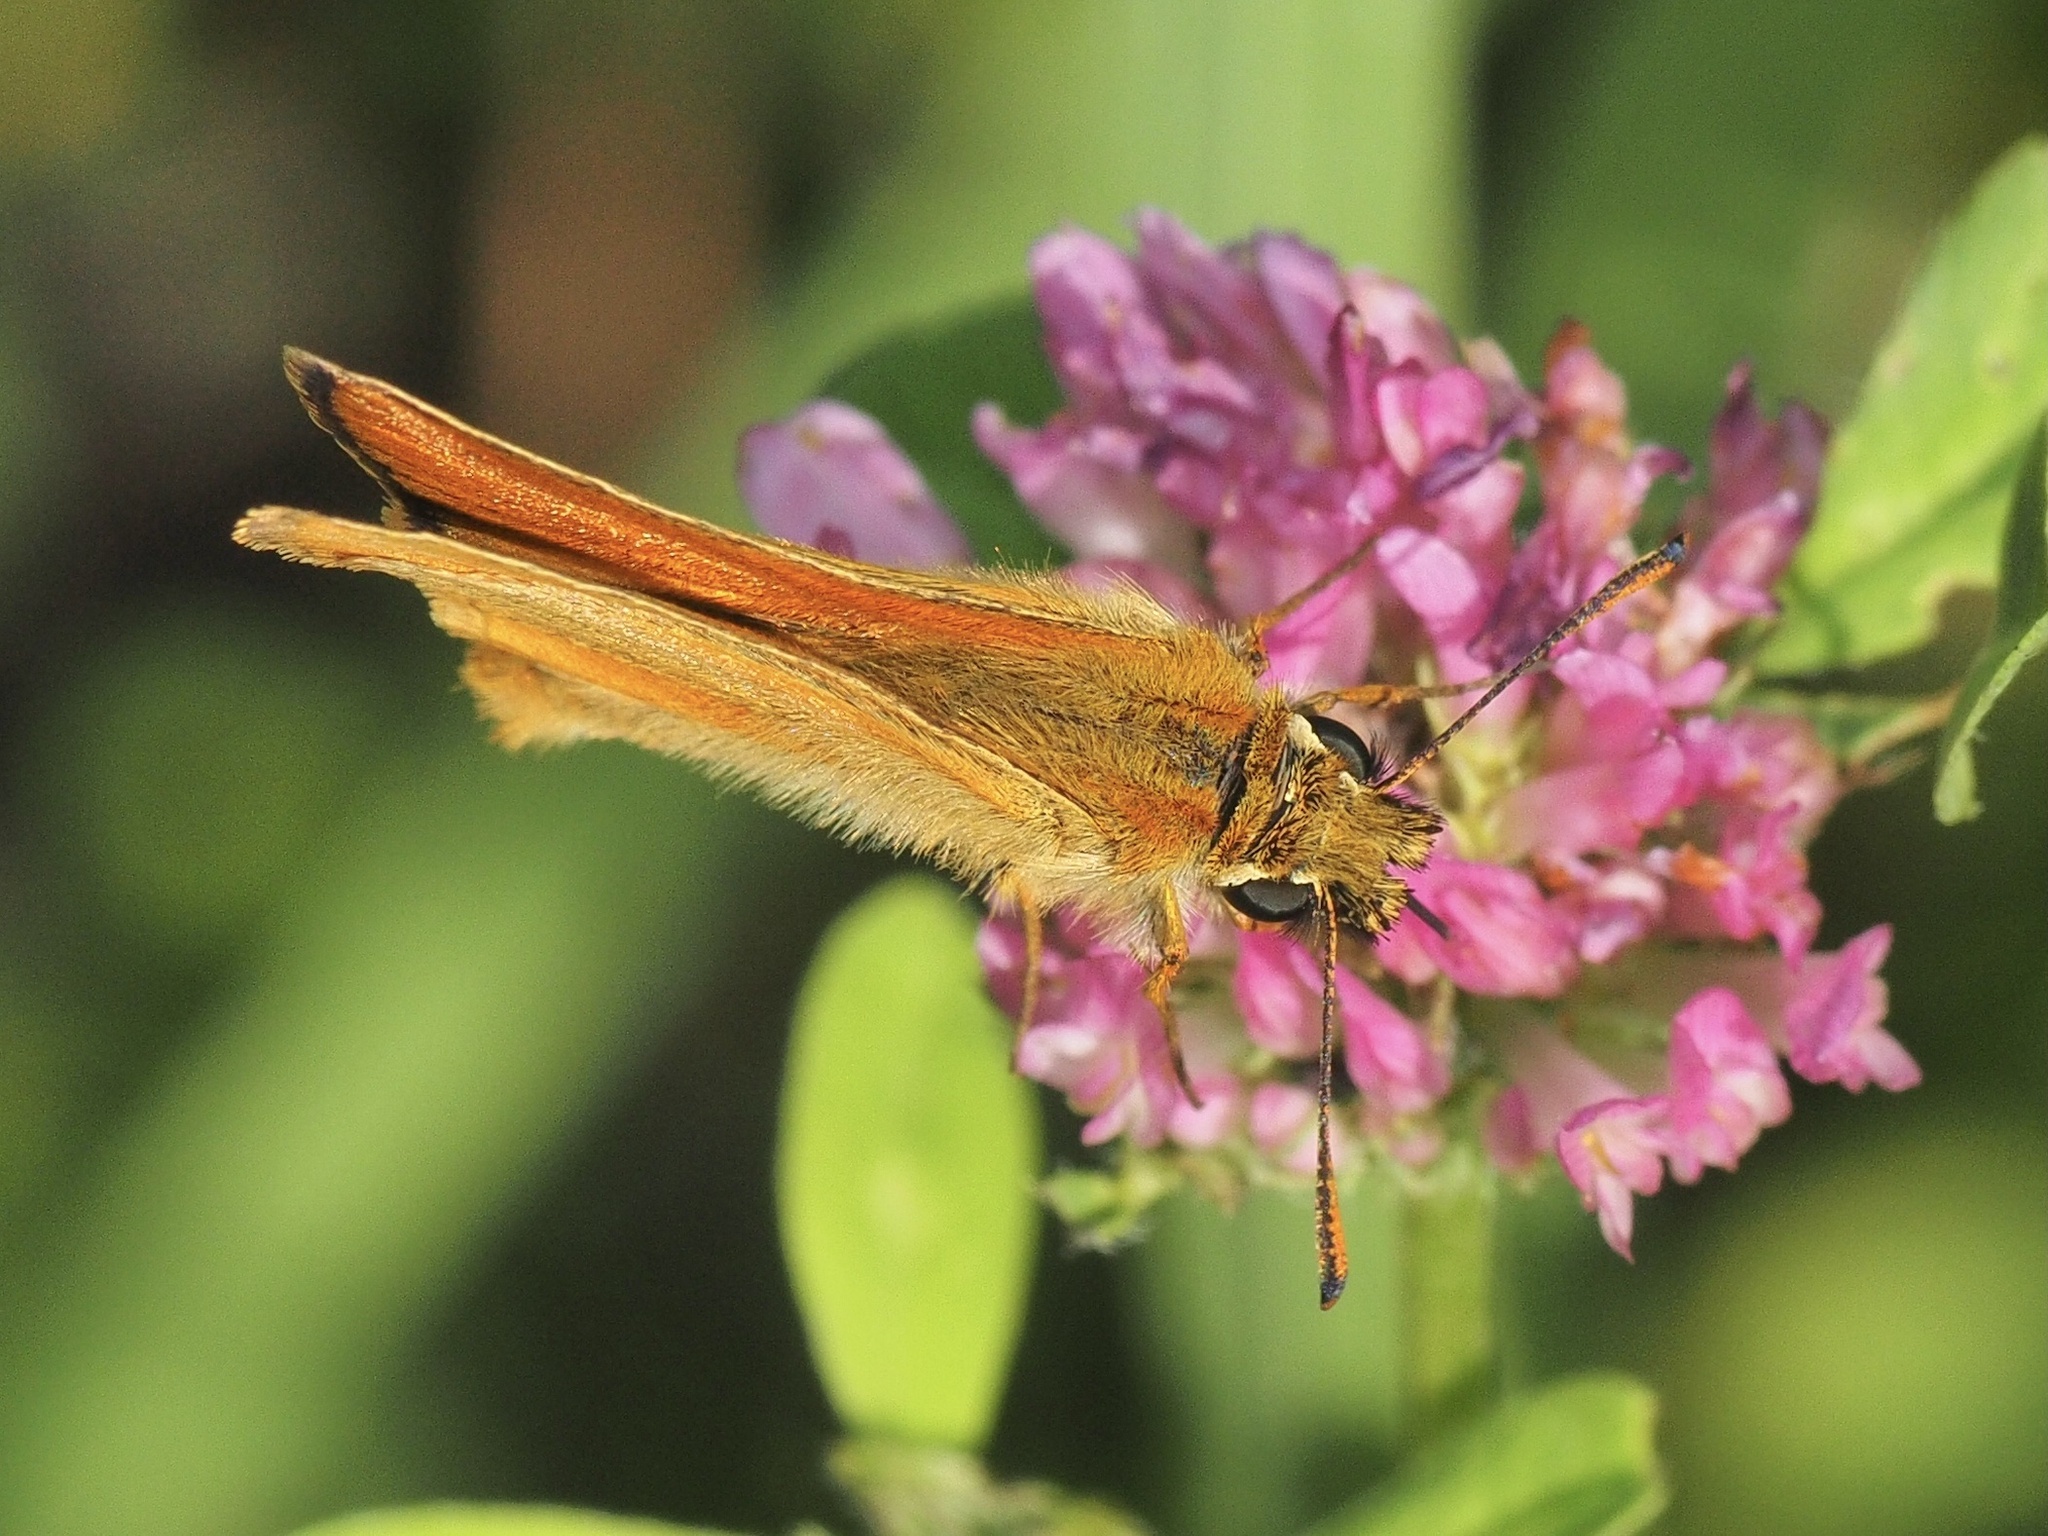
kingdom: Animalia
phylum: Arthropoda
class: Insecta
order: Lepidoptera
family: Hesperiidae
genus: Thymelicus
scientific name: Thymelicus sylvestris
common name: Small skipper
